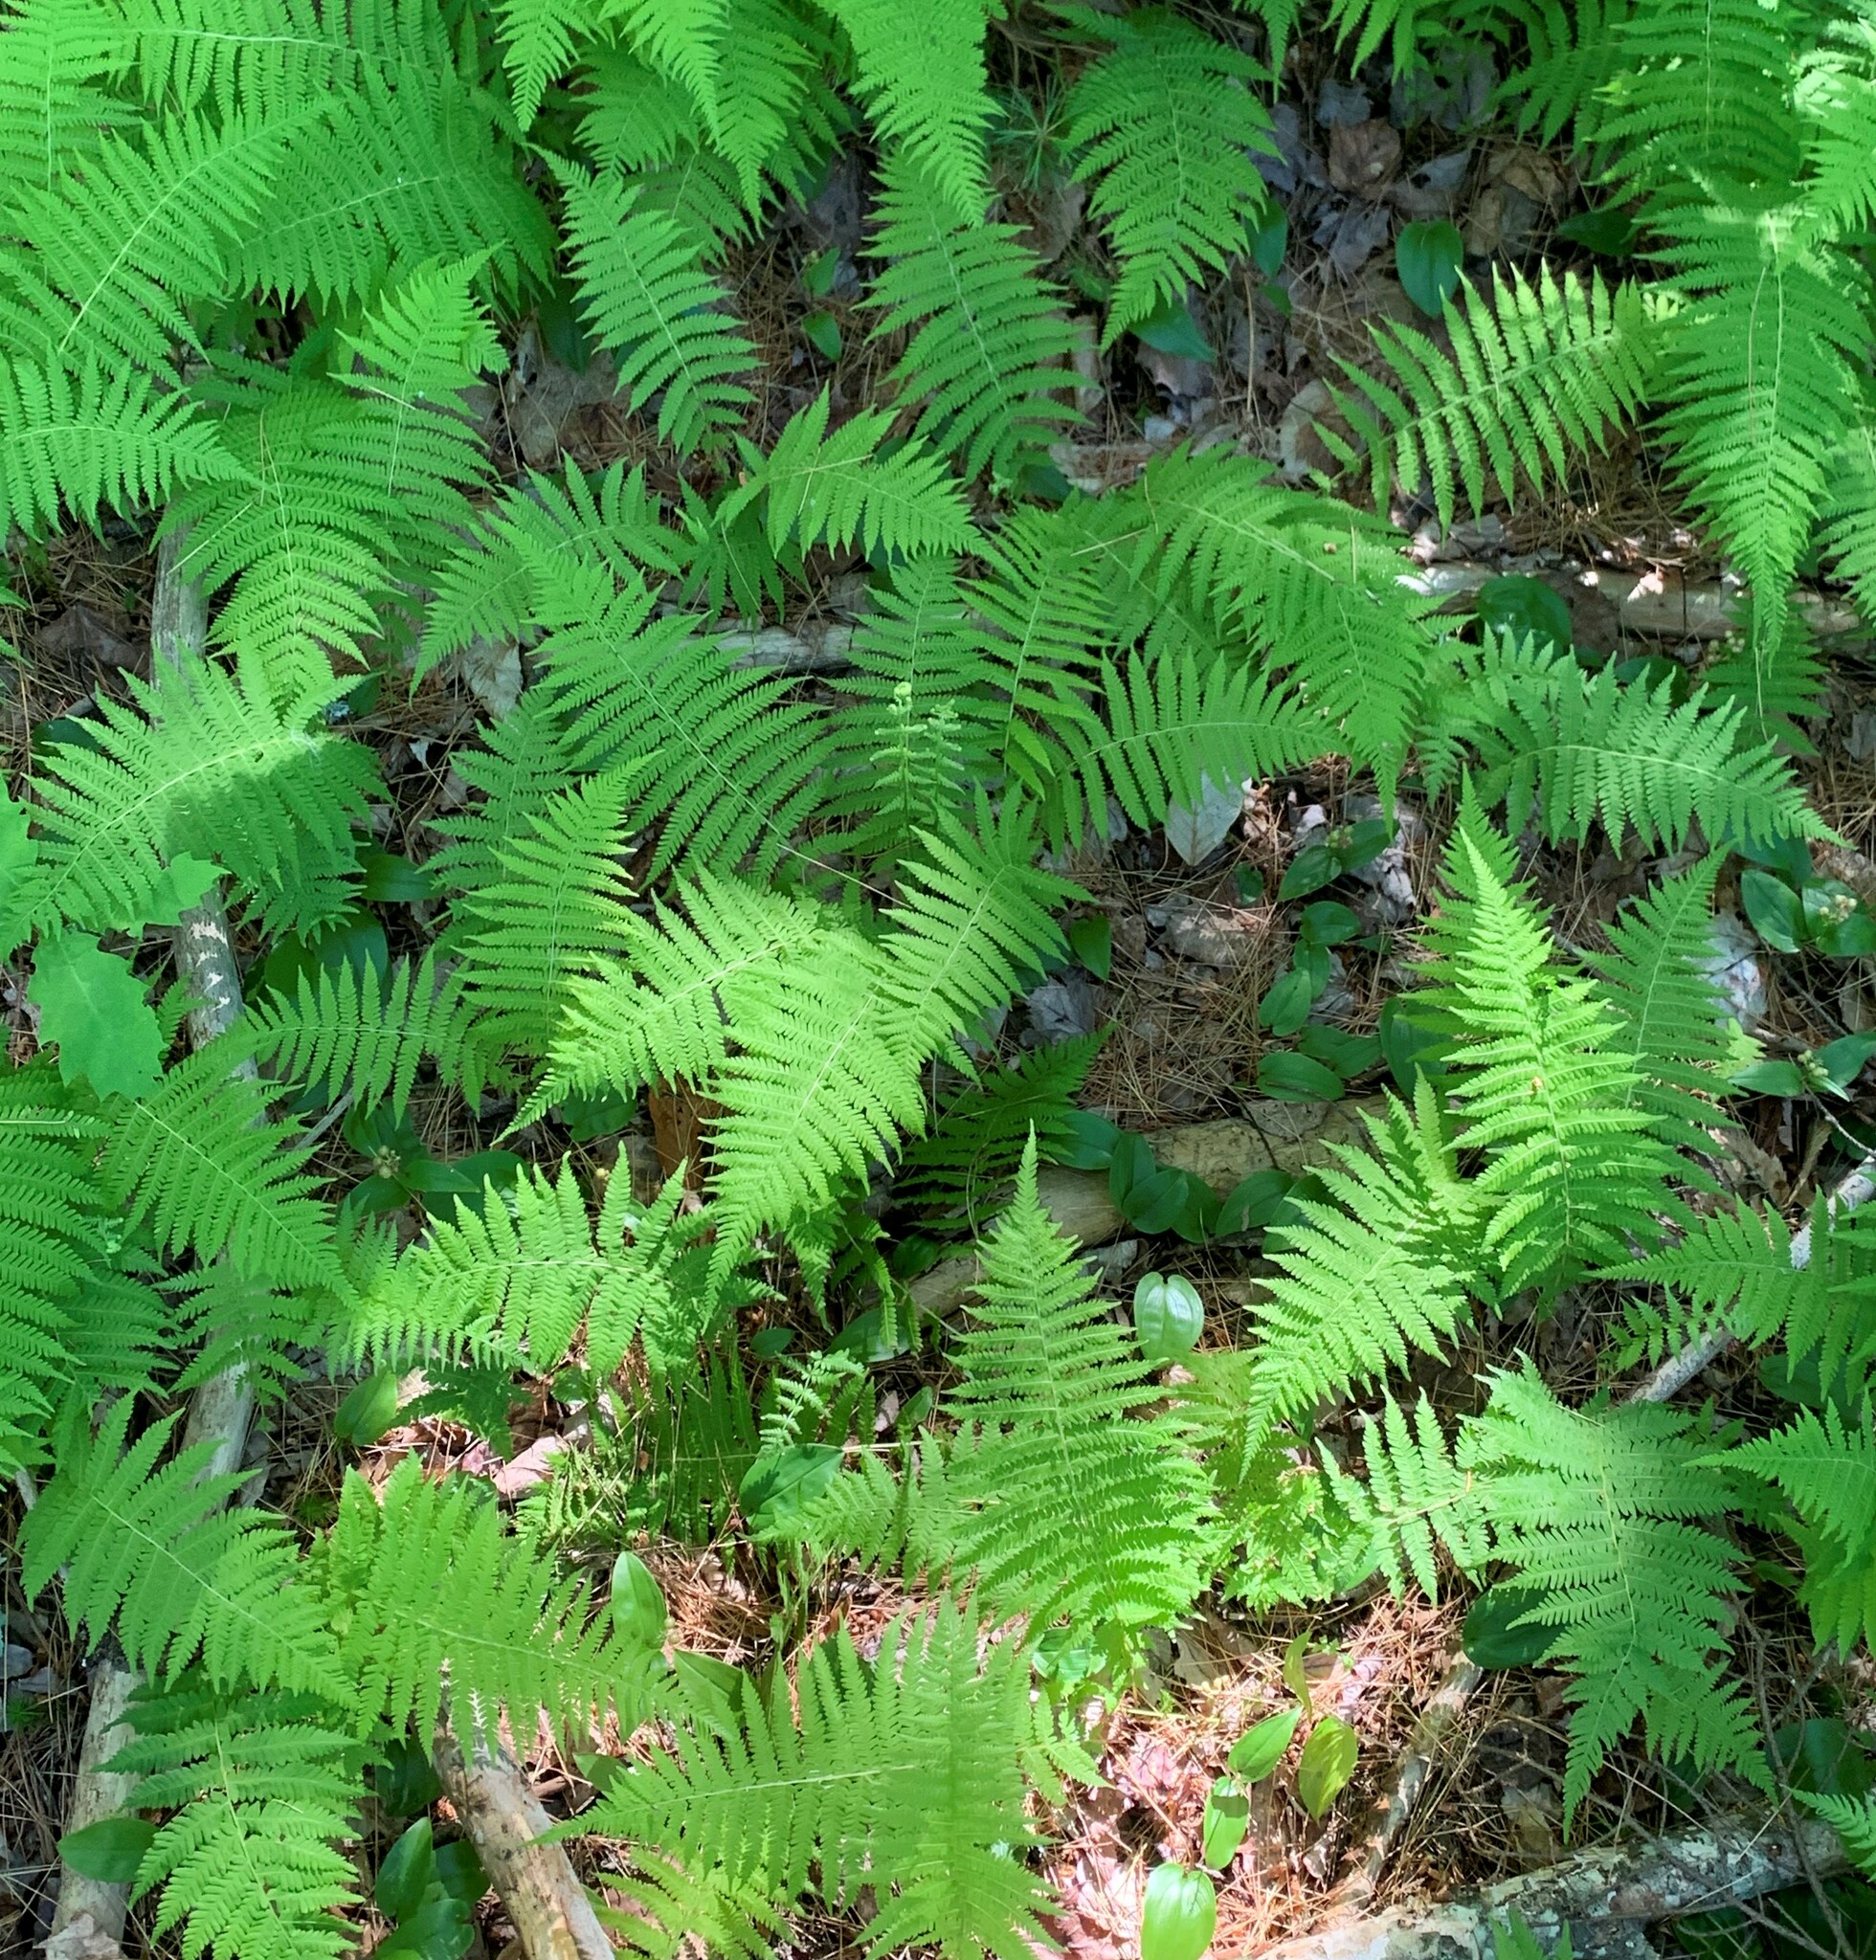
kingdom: Plantae
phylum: Tracheophyta
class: Polypodiopsida
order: Polypodiales
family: Thelypteridaceae
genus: Amauropelta
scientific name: Amauropelta noveboracensis
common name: New york fern
